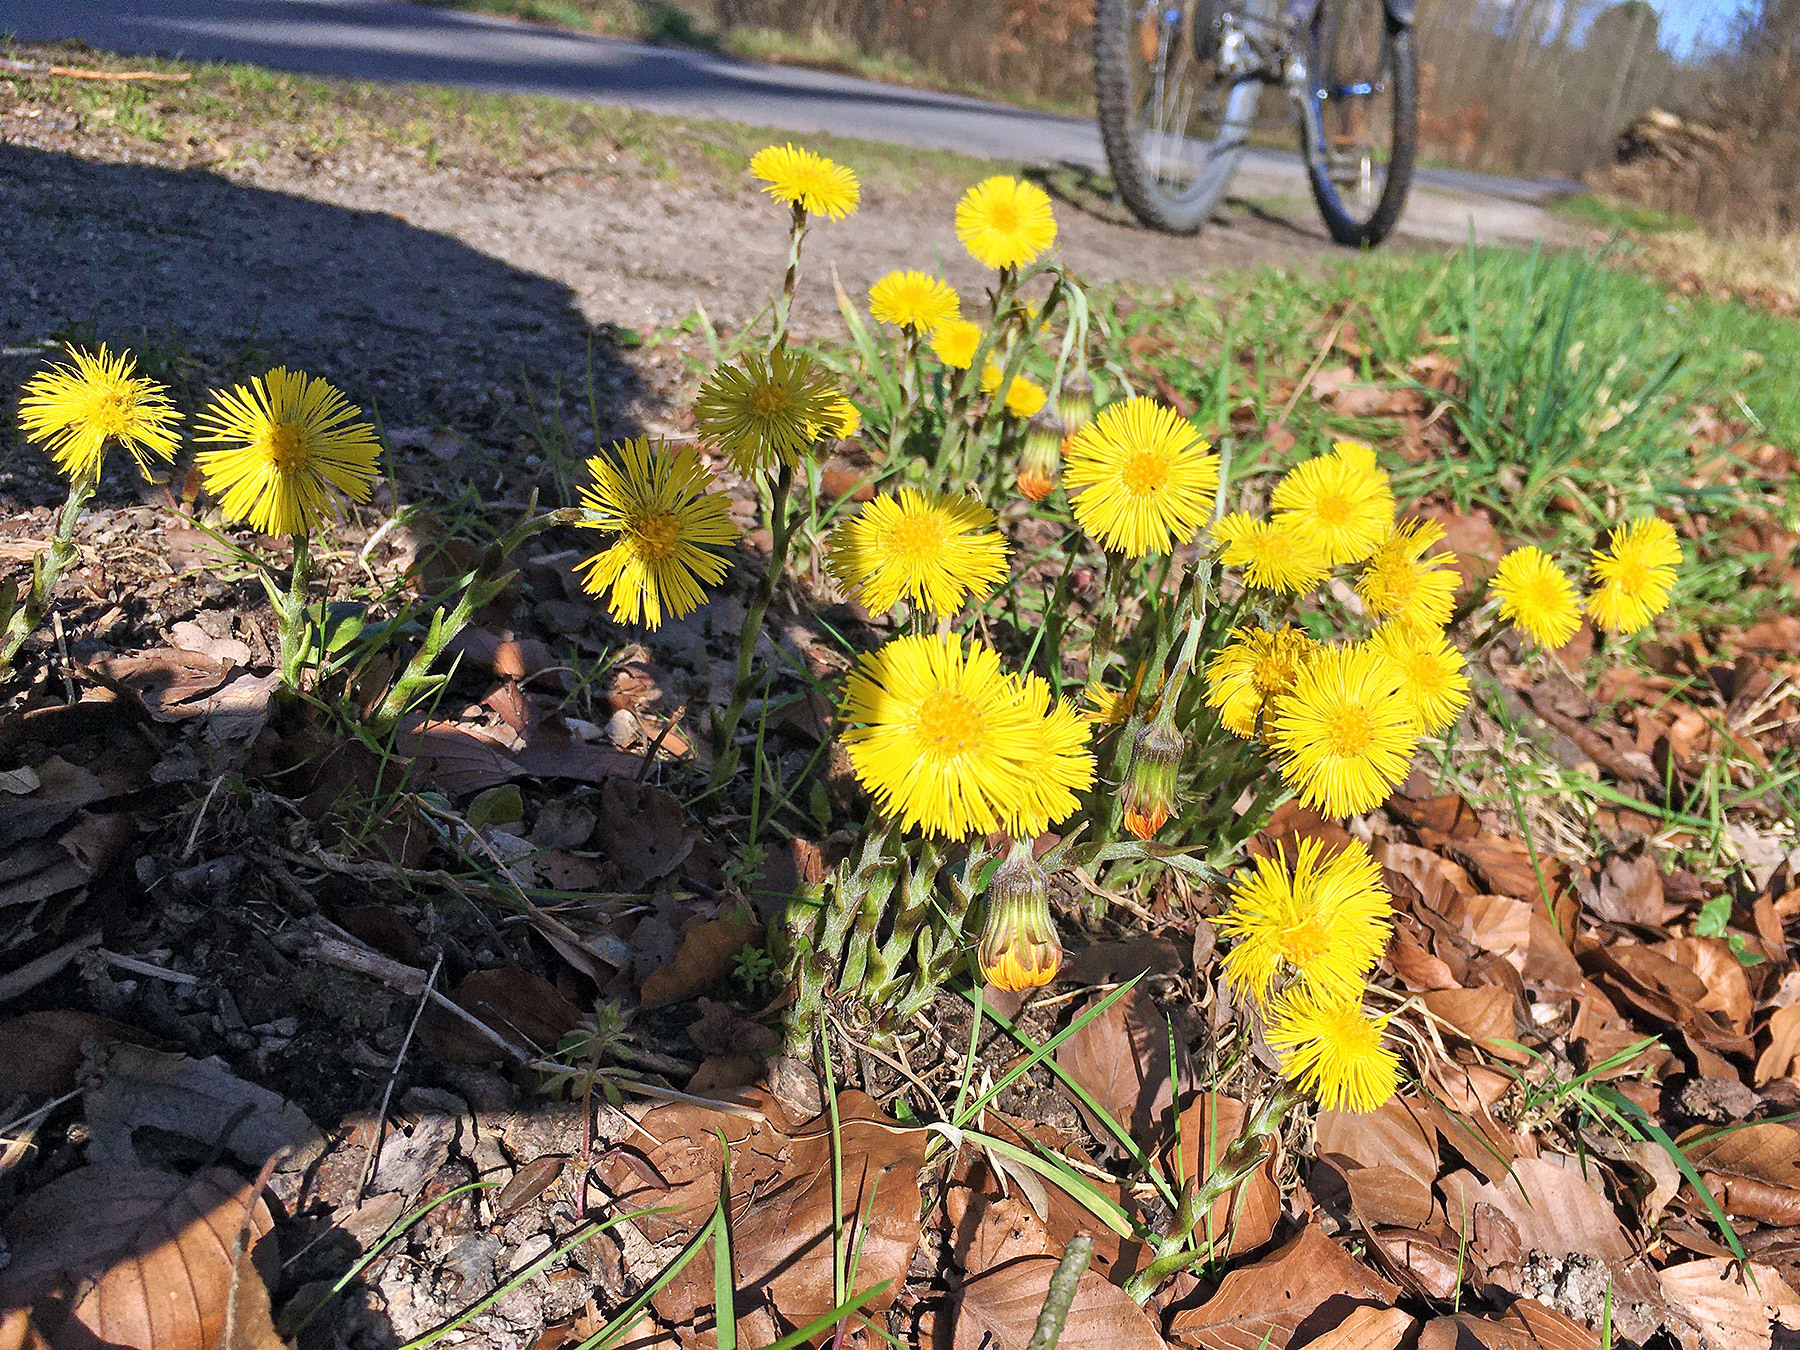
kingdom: Plantae
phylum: Tracheophyta
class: Magnoliopsida
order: Asterales
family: Asteraceae
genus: Tussilago
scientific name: Tussilago farfara
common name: Coltsfoot
